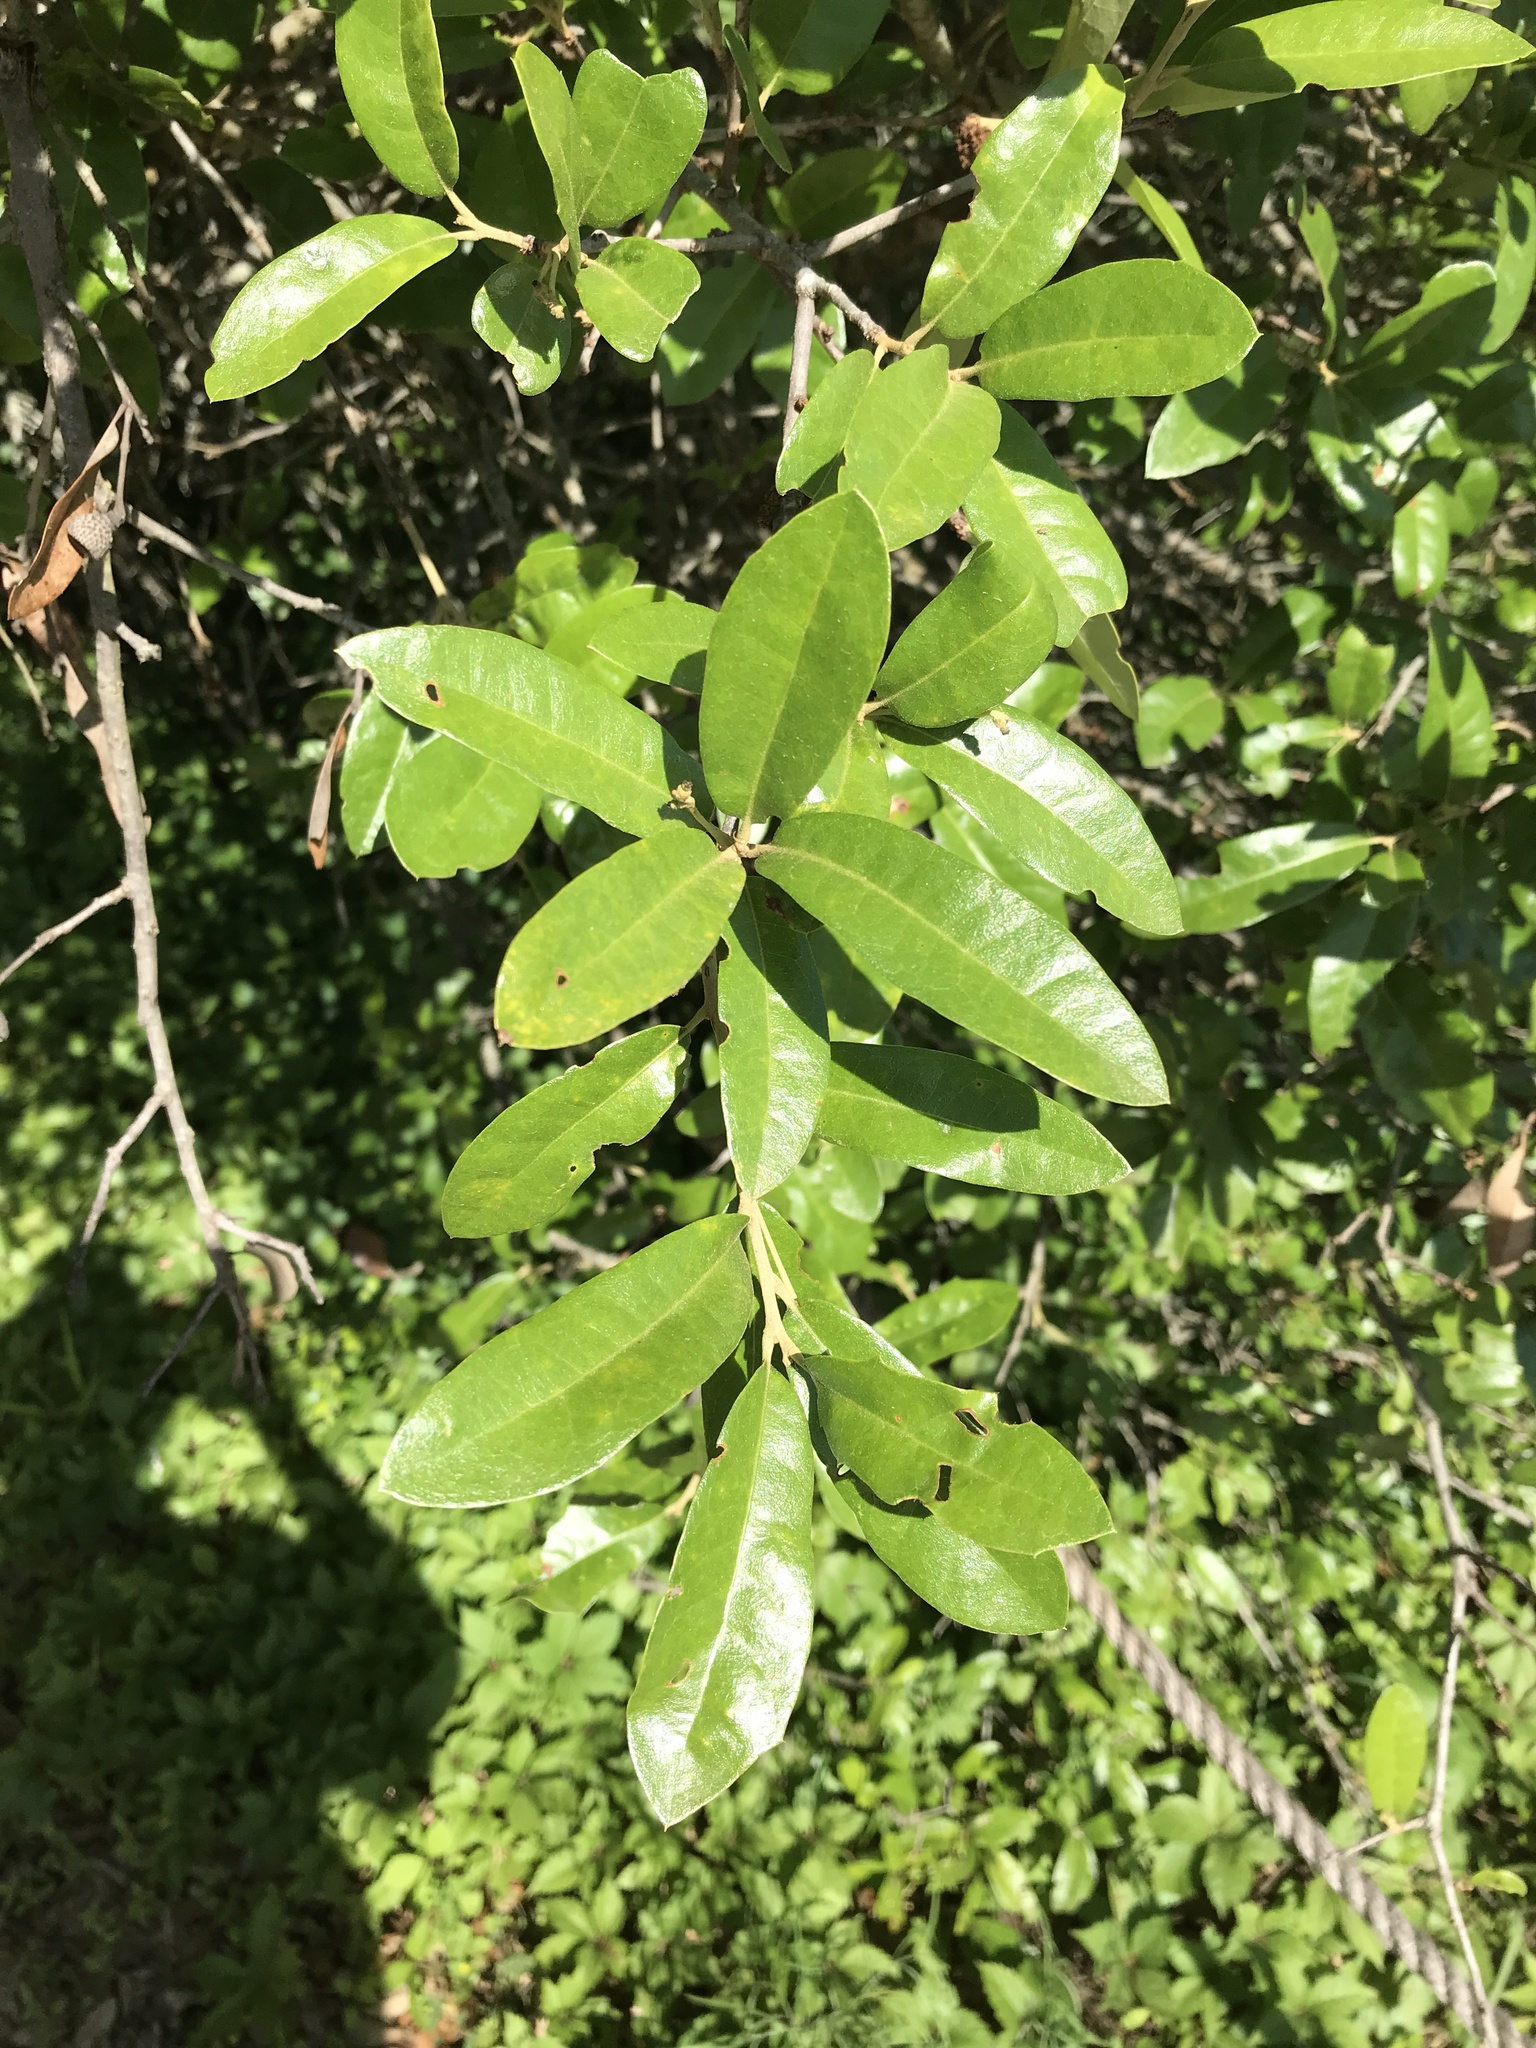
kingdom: Plantae
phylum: Tracheophyta
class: Magnoliopsida
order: Fagales
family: Fagaceae
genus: Quercus
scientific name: Quercus fusiformis
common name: Texas live oak
